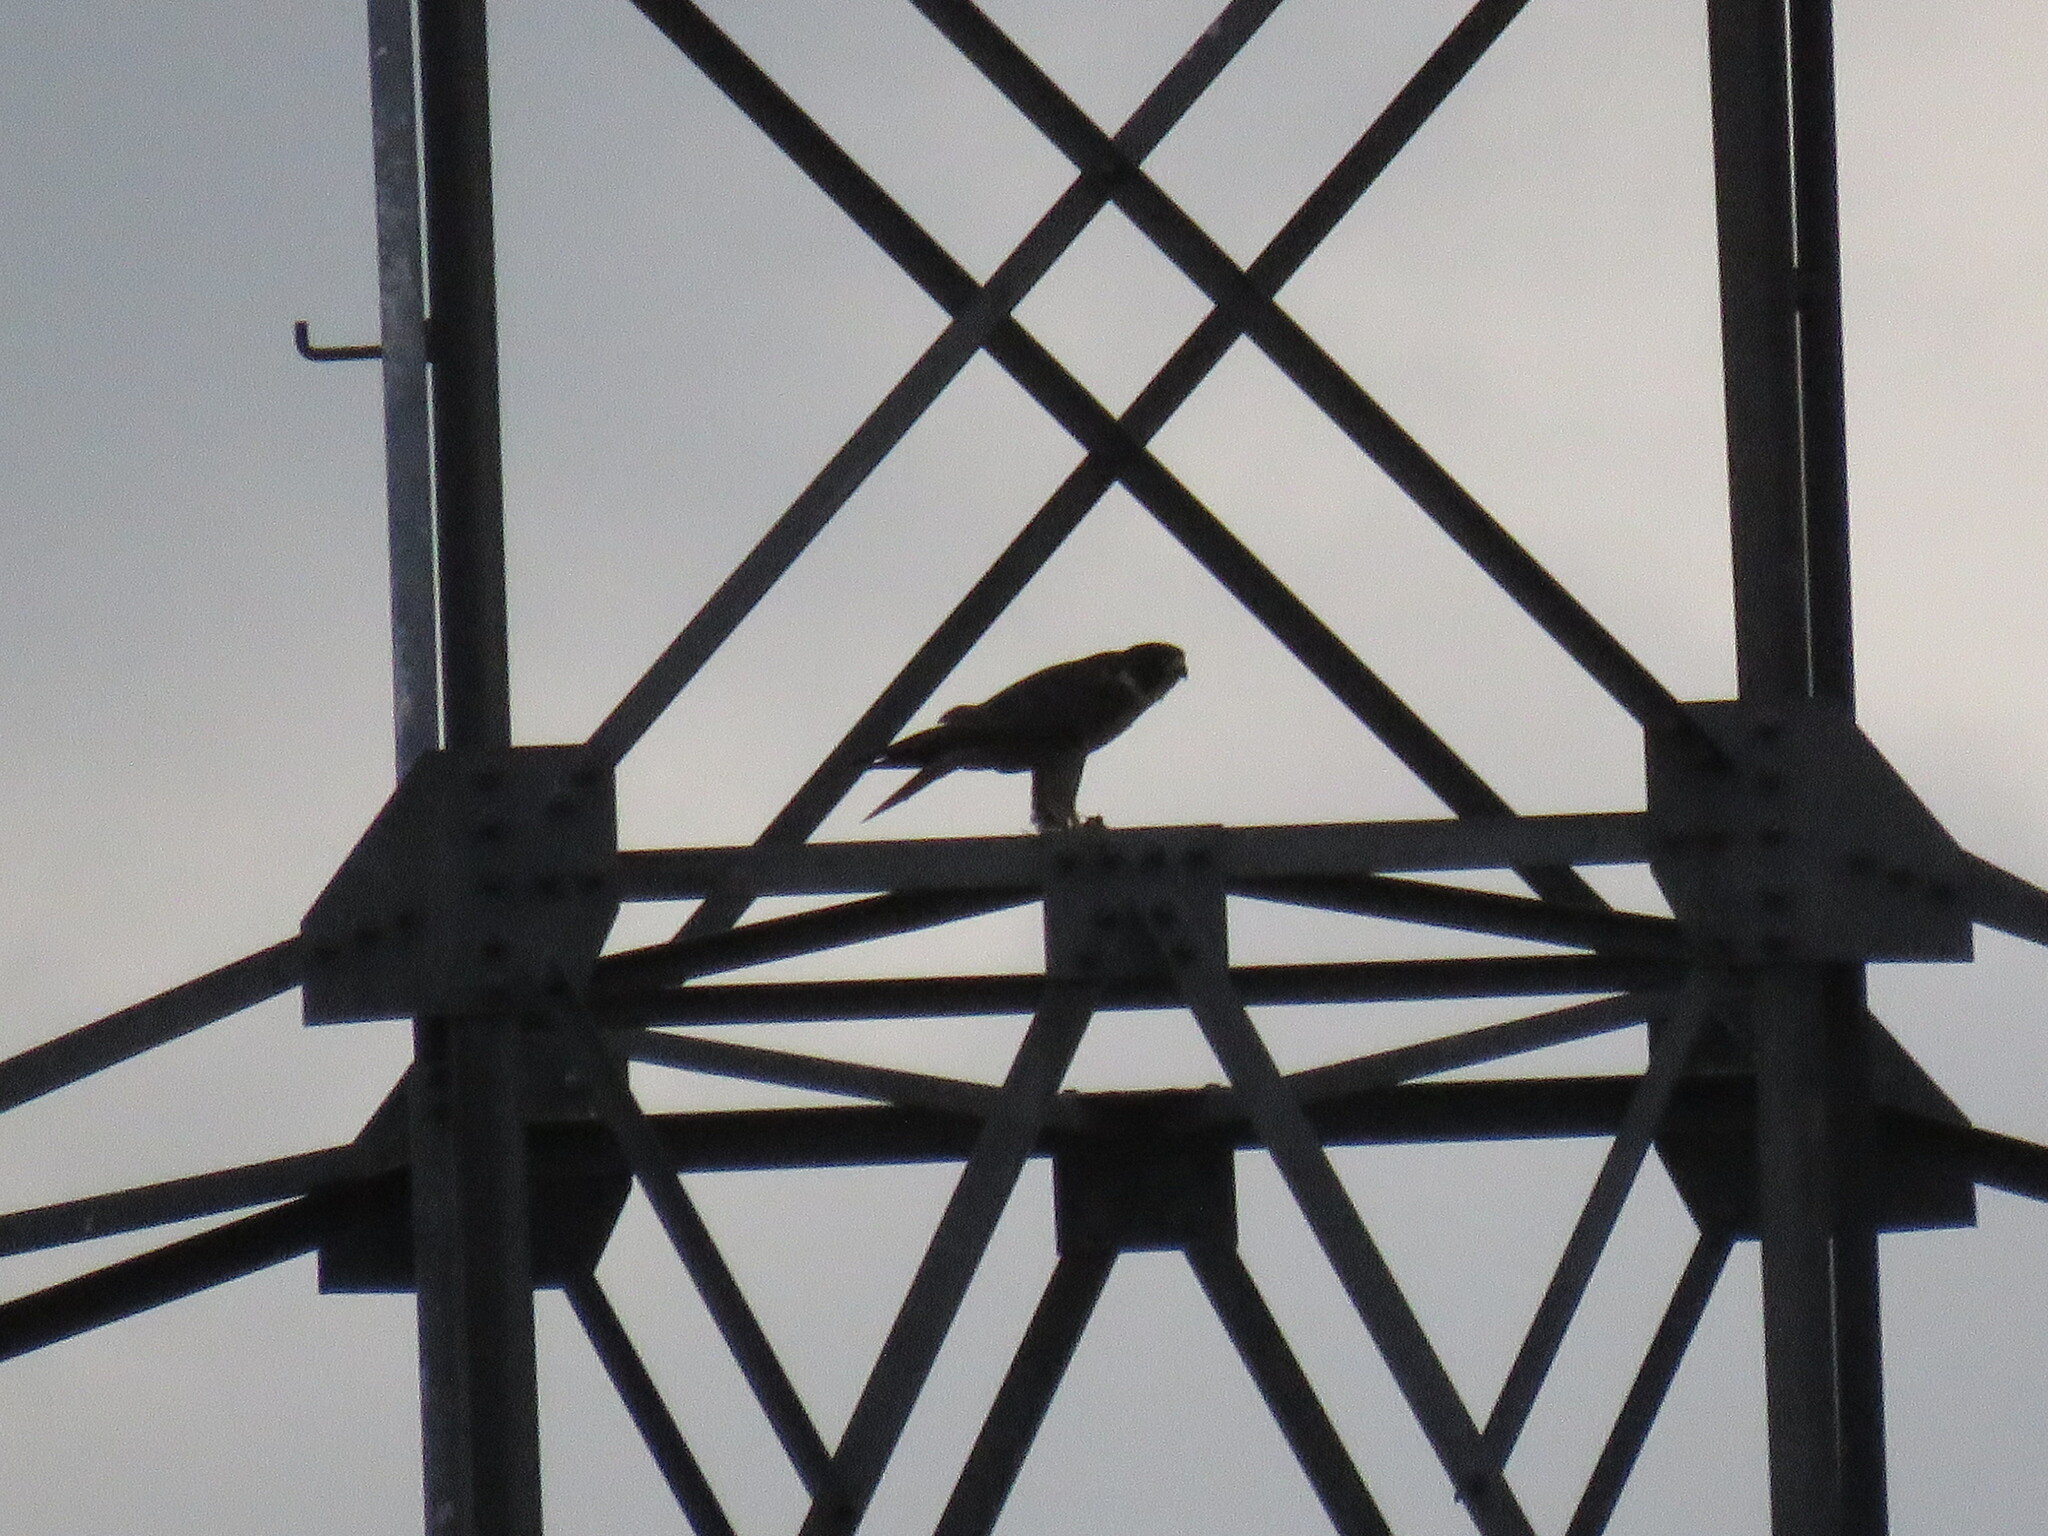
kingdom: Animalia
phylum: Chordata
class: Aves
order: Falconiformes
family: Falconidae
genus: Falco
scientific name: Falco peregrinus
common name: Peregrine falcon
